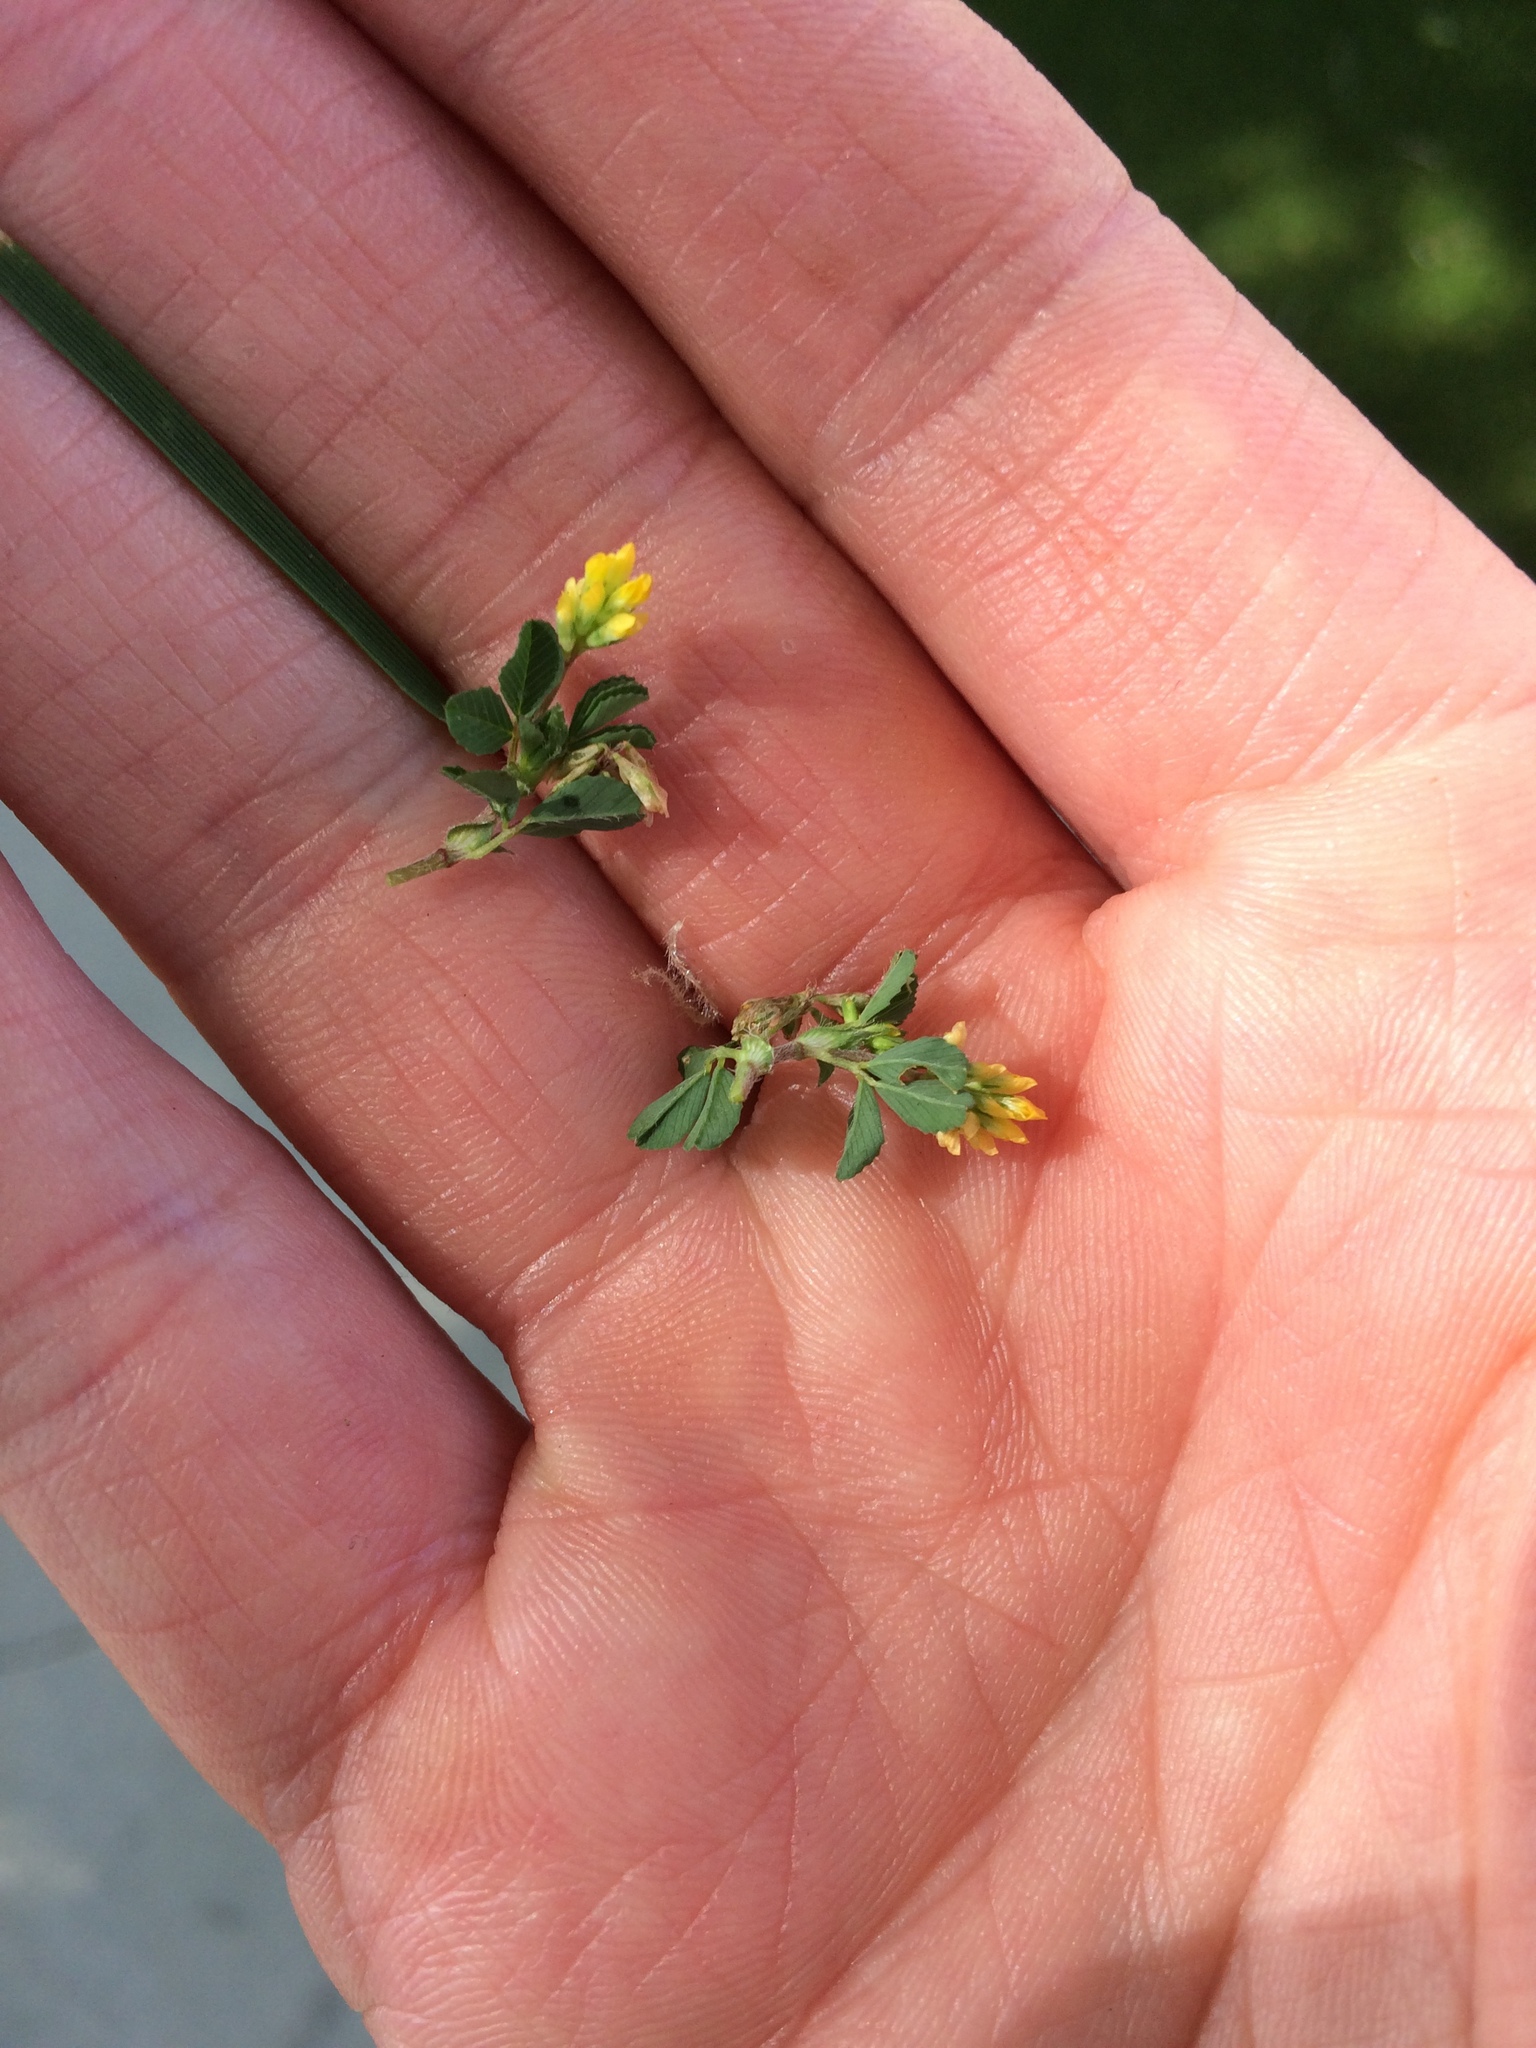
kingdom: Plantae
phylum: Tracheophyta
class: Magnoliopsida
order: Fabales
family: Fabaceae
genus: Trifolium
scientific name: Trifolium dubium
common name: Suckling clover
